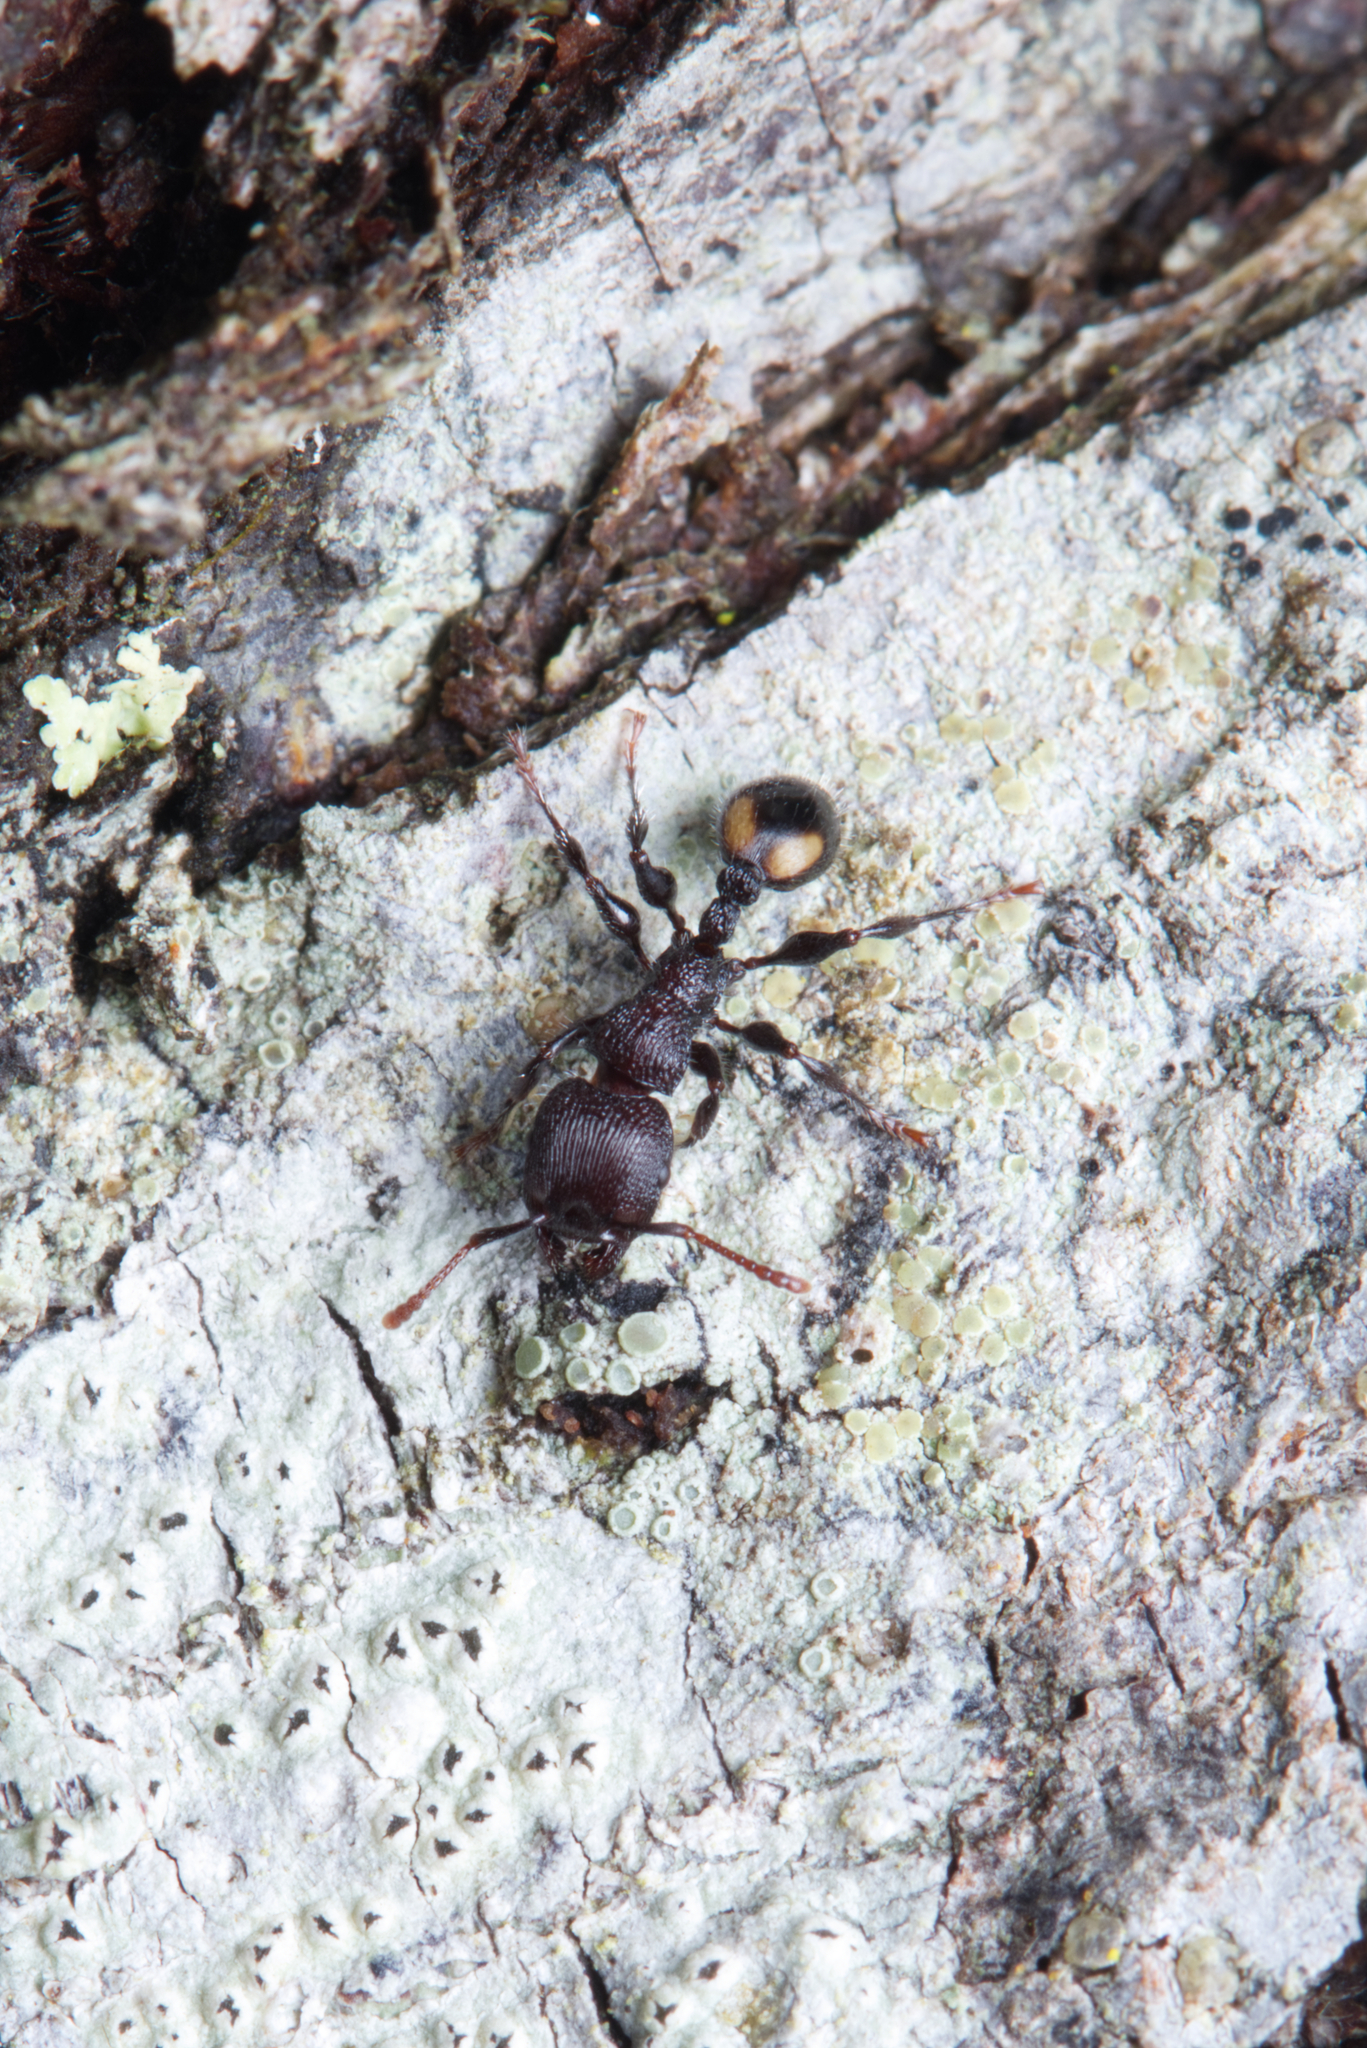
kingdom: Animalia
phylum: Arthropoda
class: Insecta
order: Hymenoptera
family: Formicidae
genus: Podomyrma
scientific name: Podomyrma
